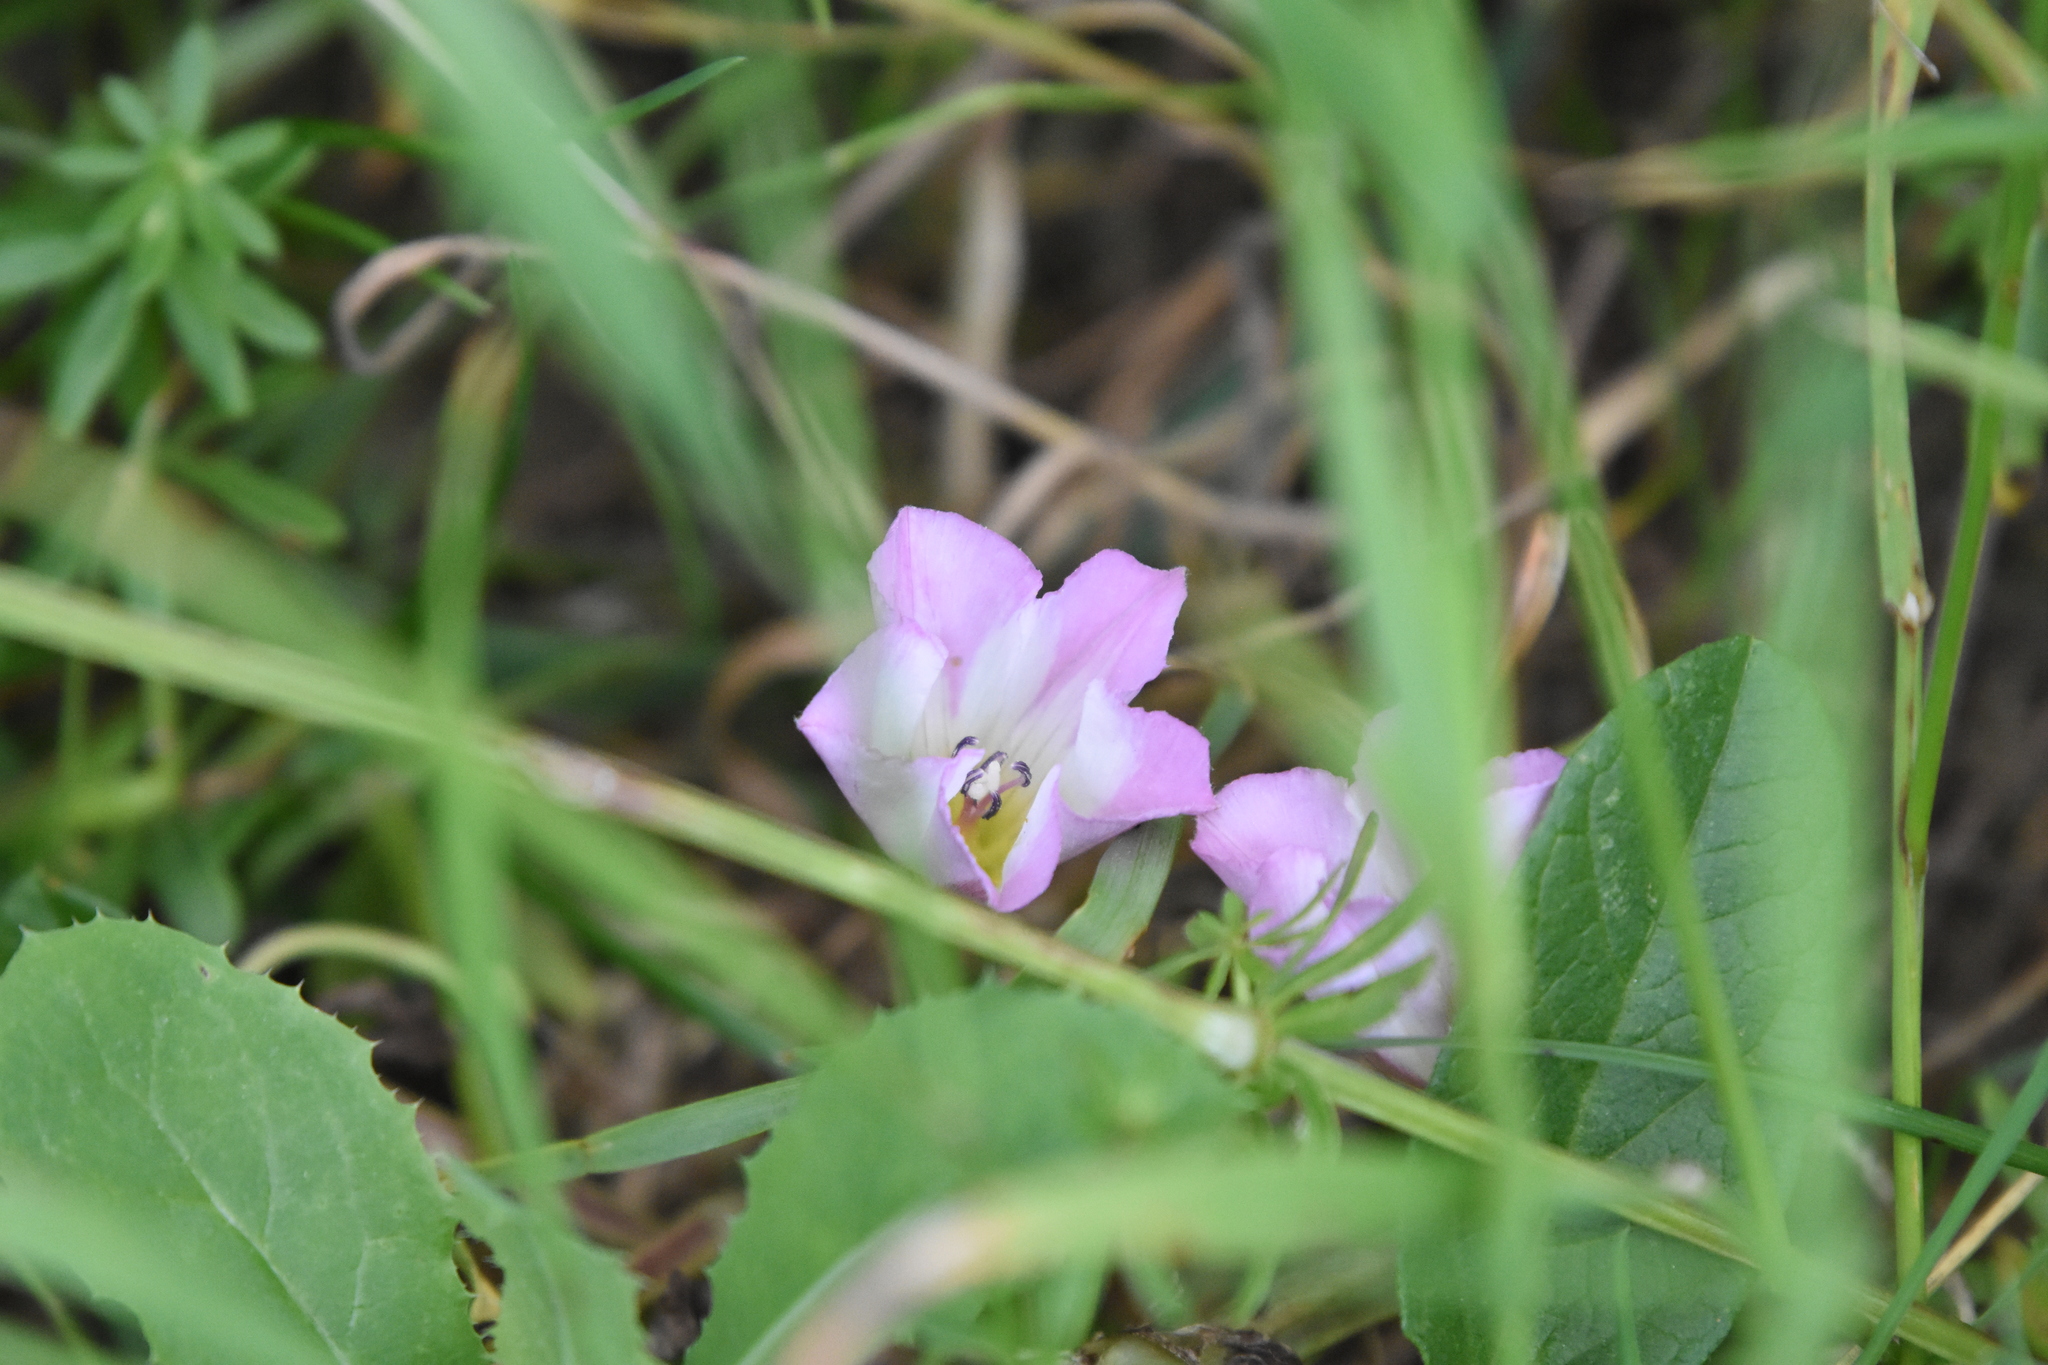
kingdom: Plantae
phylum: Tracheophyta
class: Magnoliopsida
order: Solanales
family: Convolvulaceae
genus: Convolvulus
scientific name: Convolvulus arvensis
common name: Field bindweed
